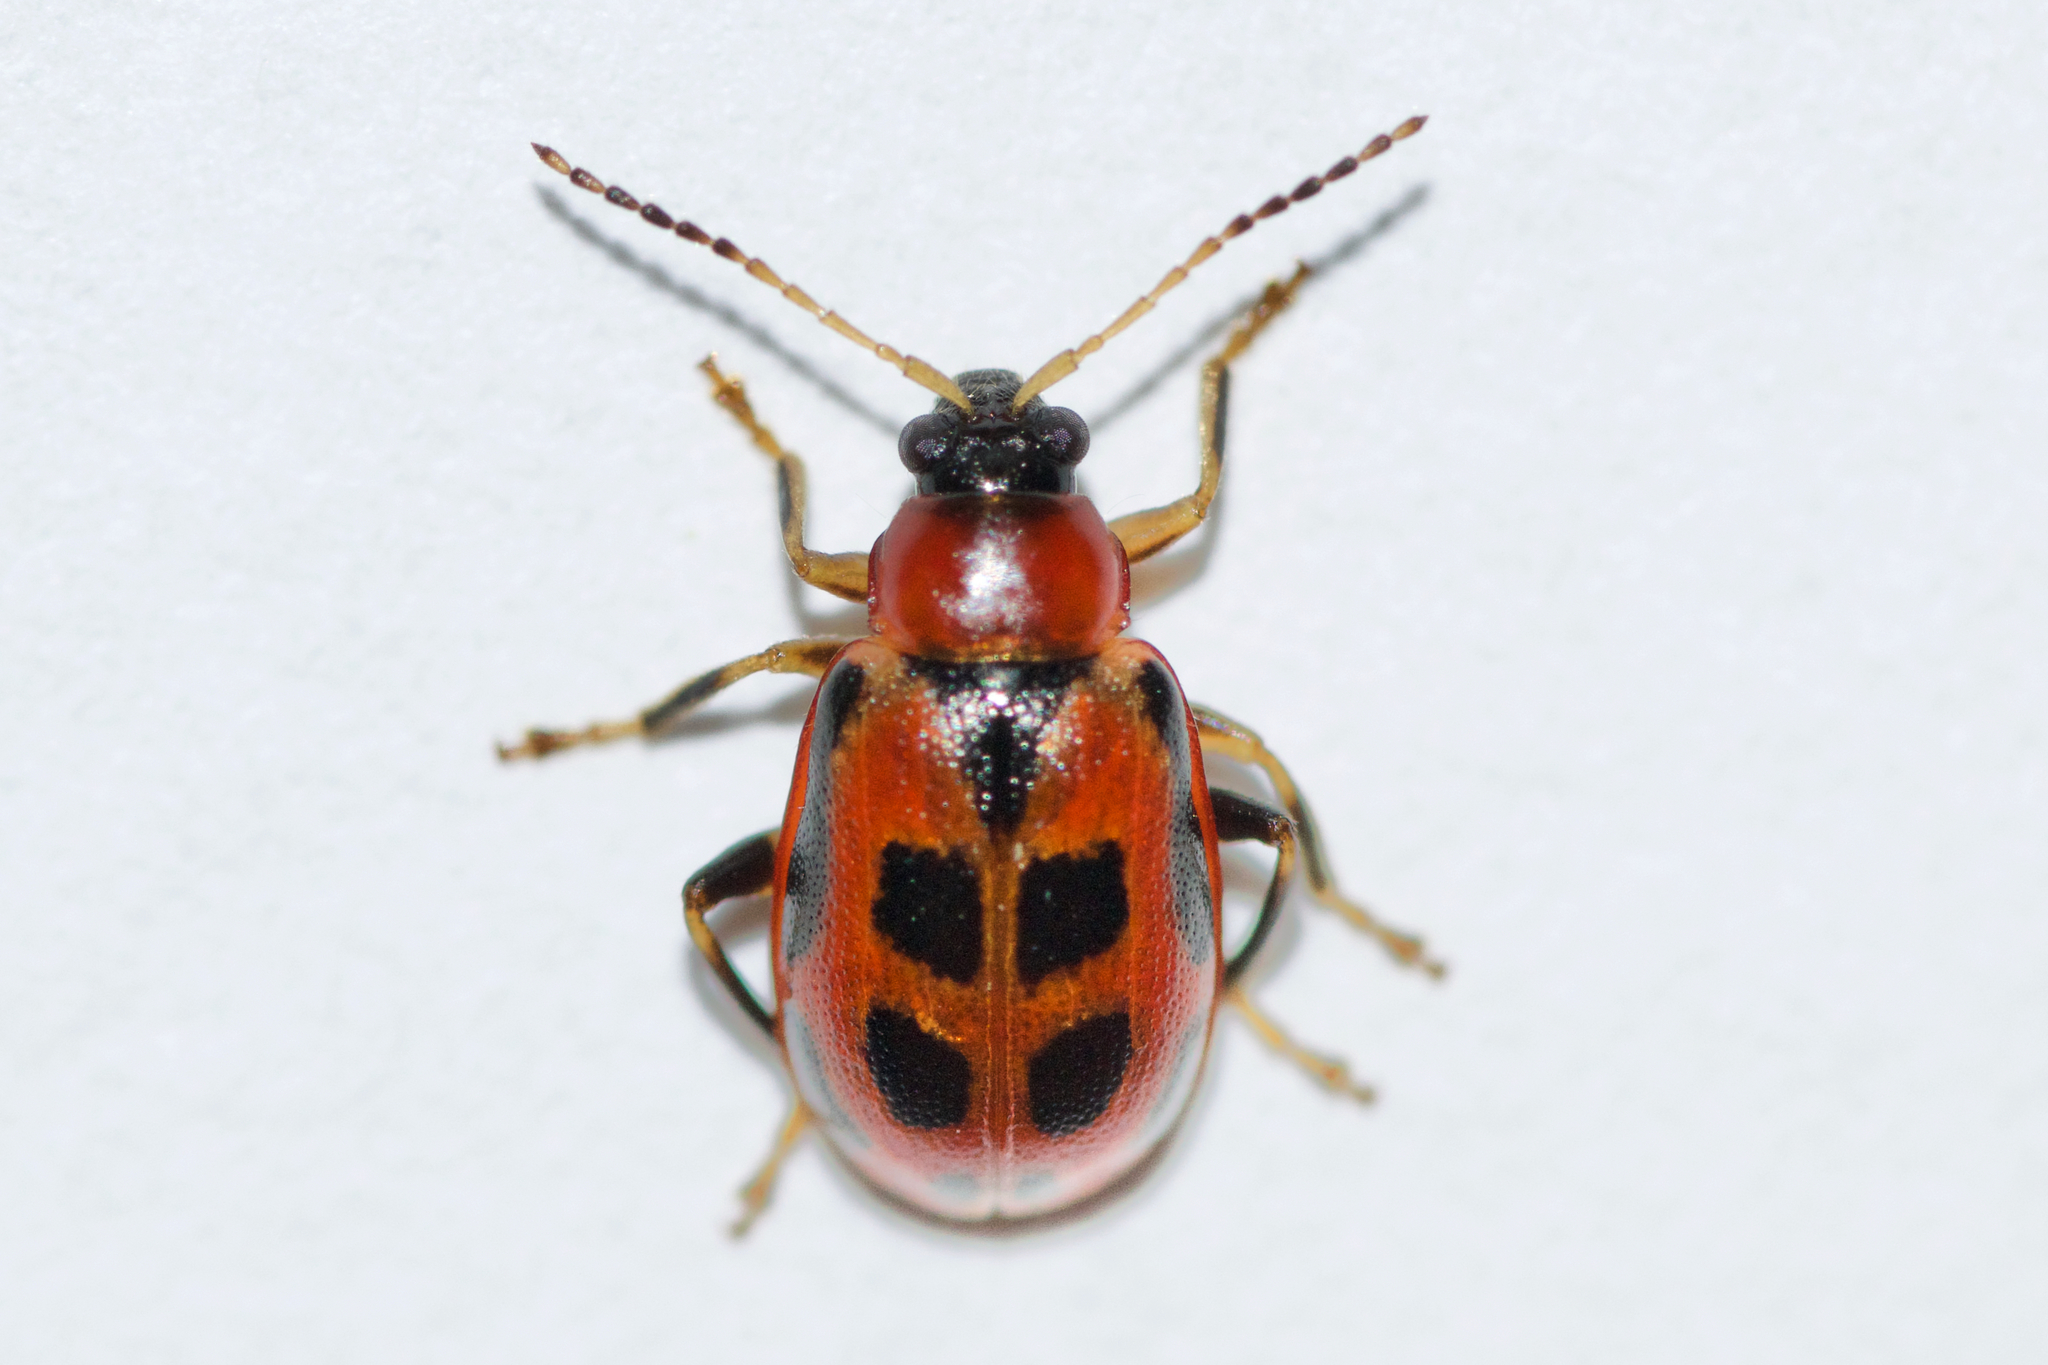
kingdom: Animalia
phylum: Arthropoda
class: Insecta
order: Coleoptera
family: Chrysomelidae
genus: Cerotoma
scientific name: Cerotoma trifurcata
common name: Bean leaf beetle
